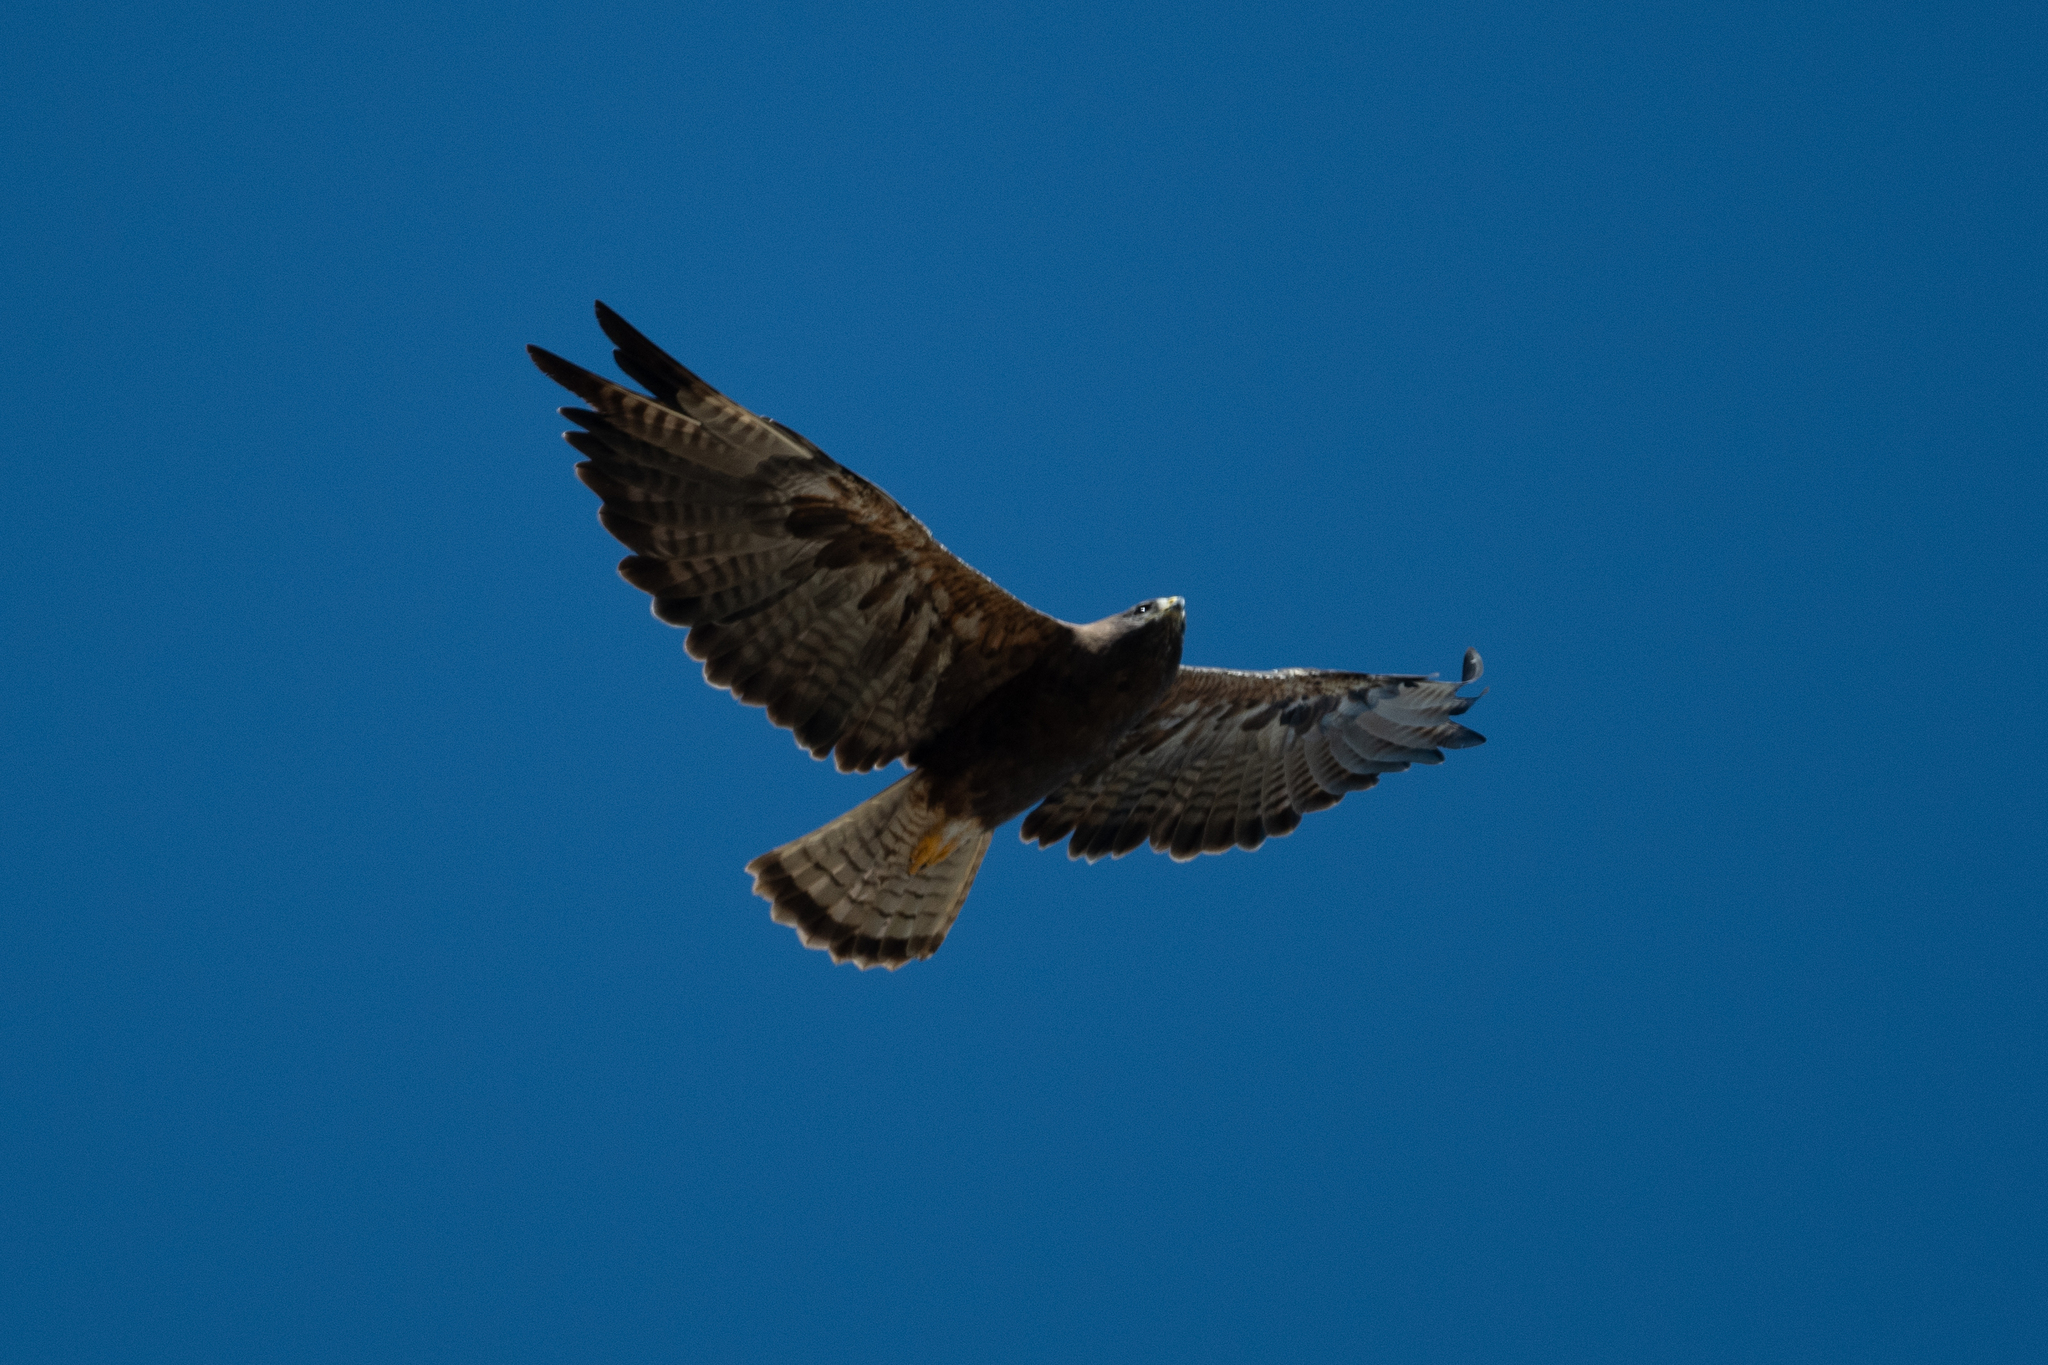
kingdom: Animalia
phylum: Chordata
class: Aves
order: Accipitriformes
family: Accipitridae
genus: Buteo
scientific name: Buteo swainsoni
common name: Swainson's hawk
